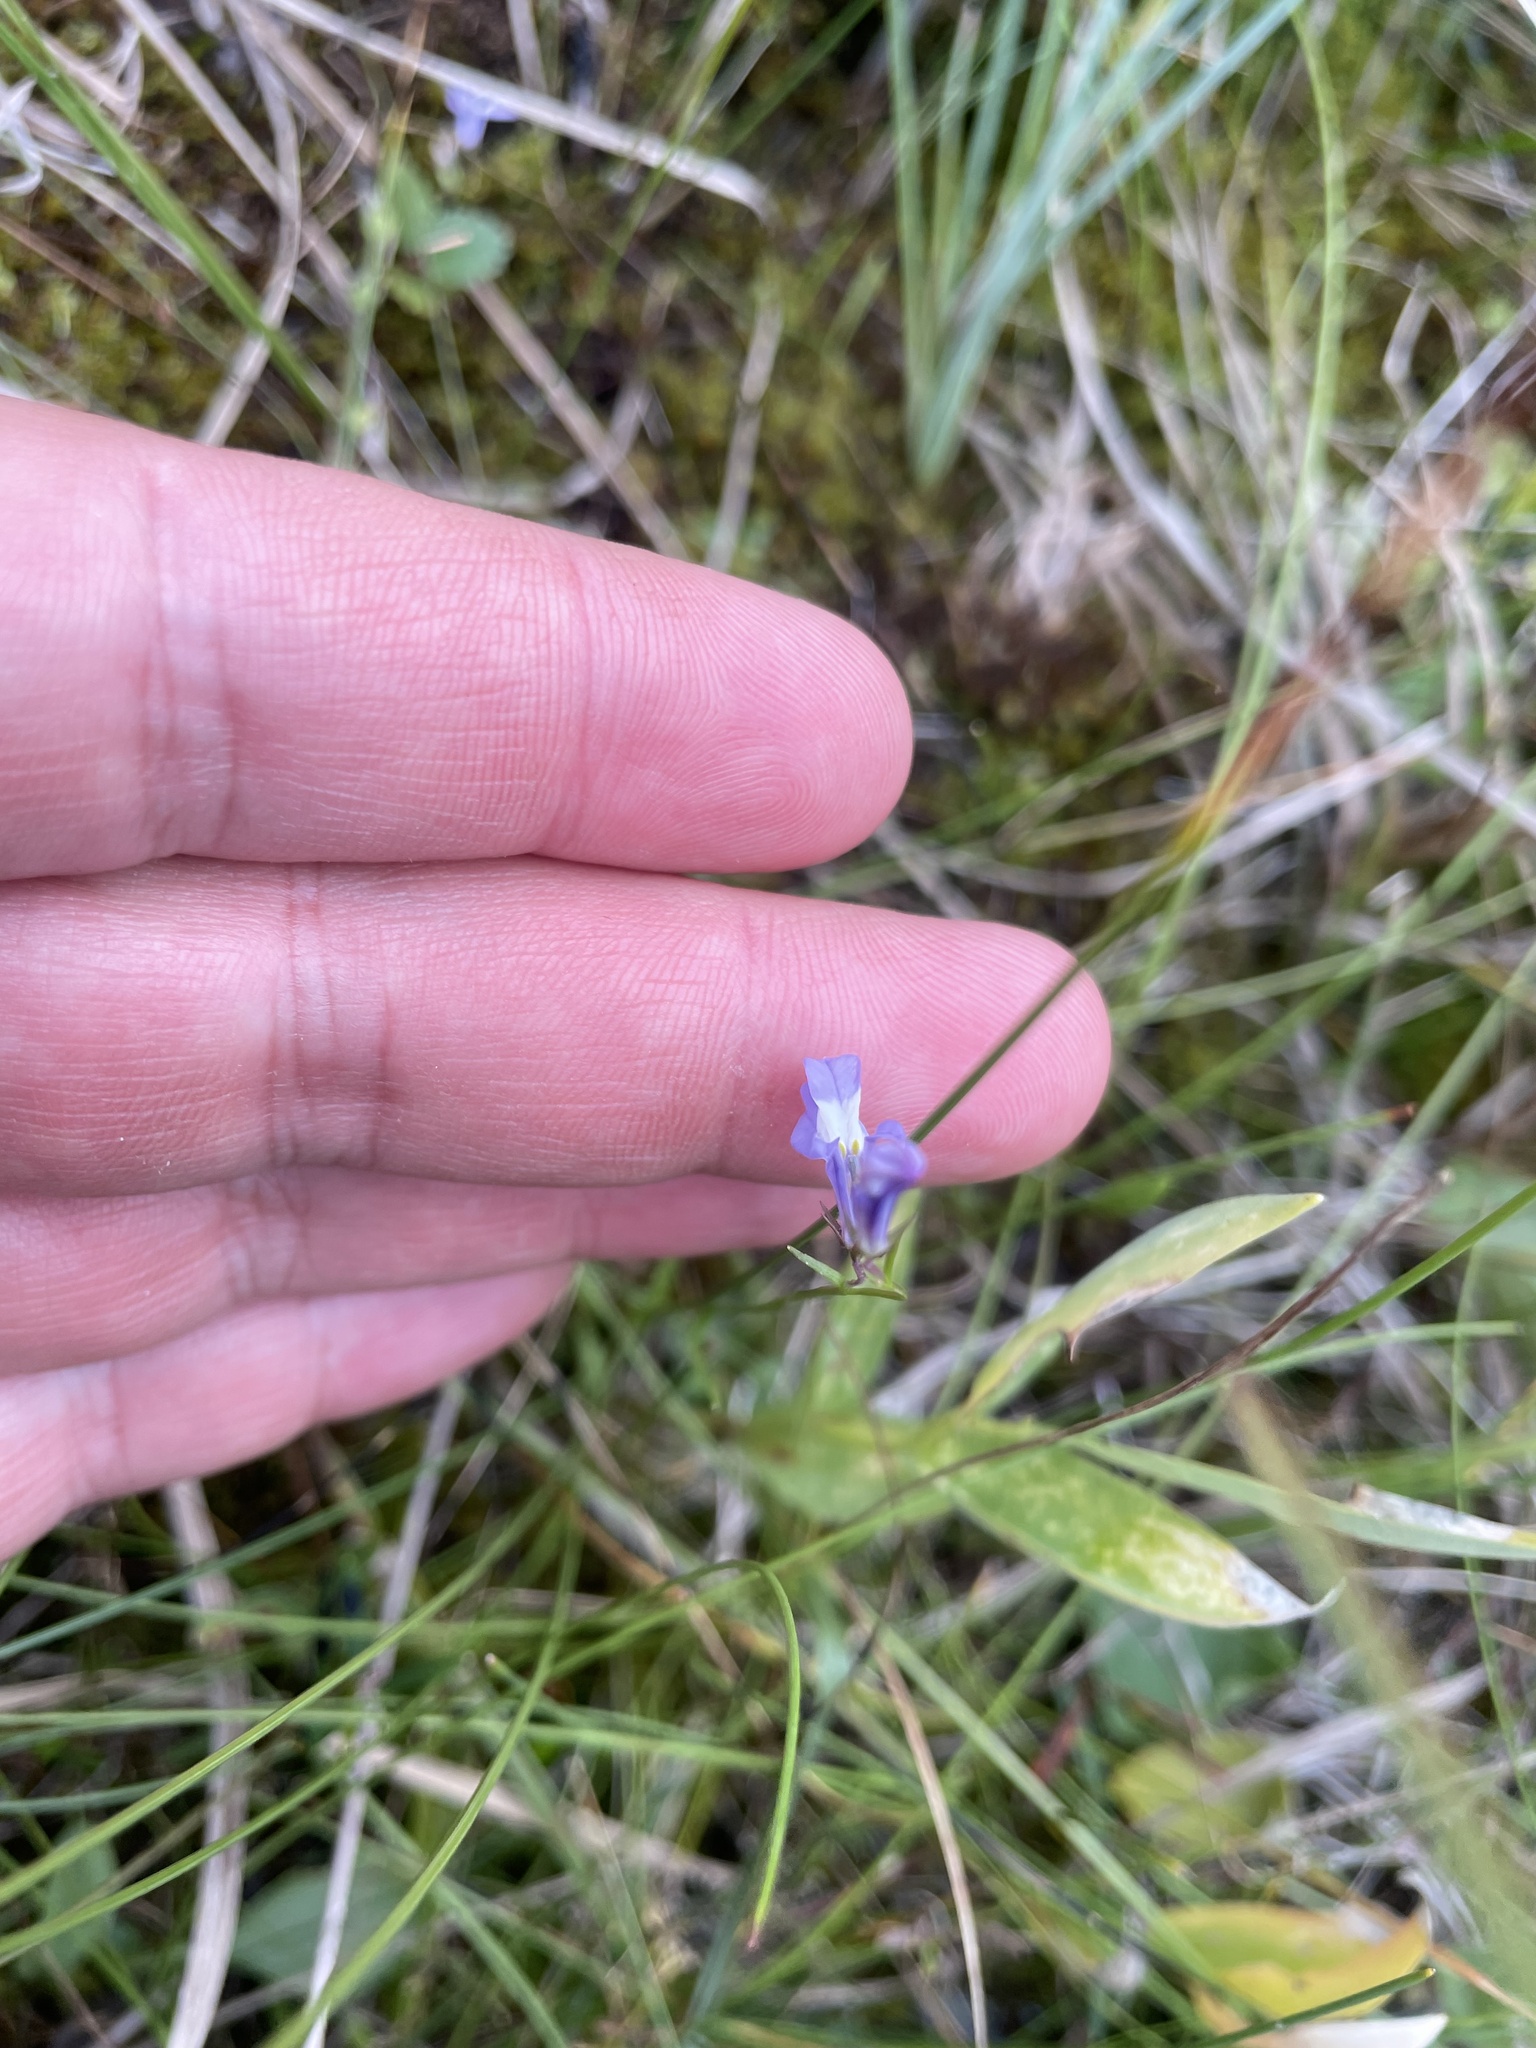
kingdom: Plantae
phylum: Tracheophyta
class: Magnoliopsida
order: Asterales
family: Campanulaceae
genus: Lobelia
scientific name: Lobelia kalmii
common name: Kalm's lobelia
